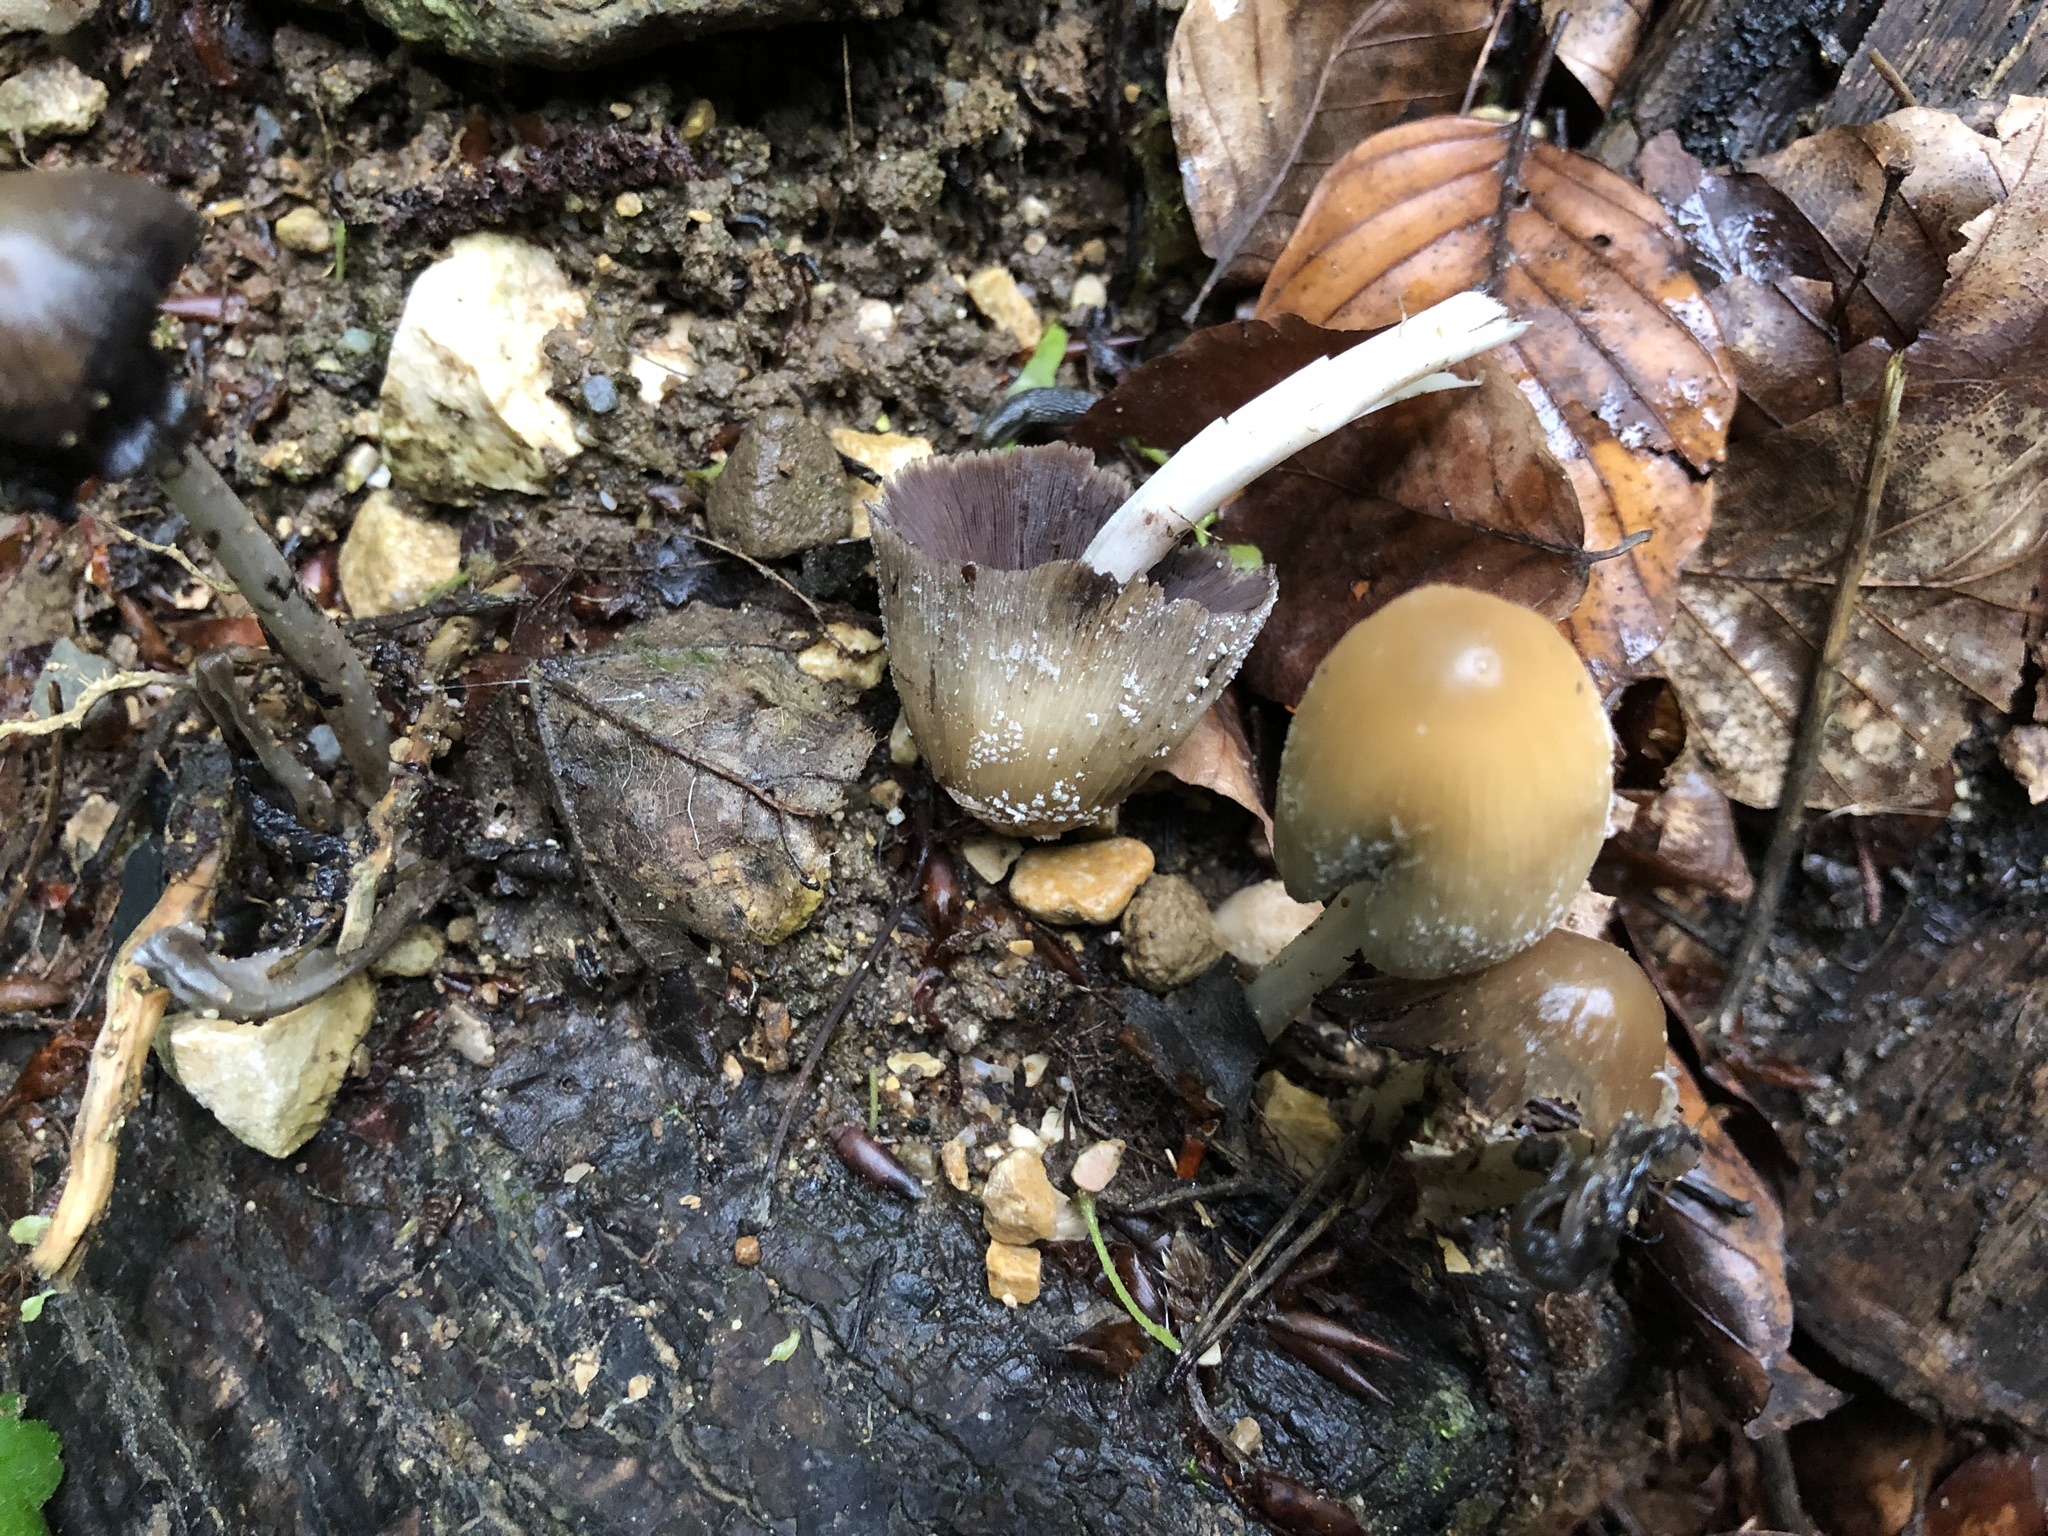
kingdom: Fungi
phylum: Basidiomycota
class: Agaricomycetes
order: Agaricales
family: Psathyrellaceae
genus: Coprinellus
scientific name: Coprinellus micaceus
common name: Glistening ink-cap
